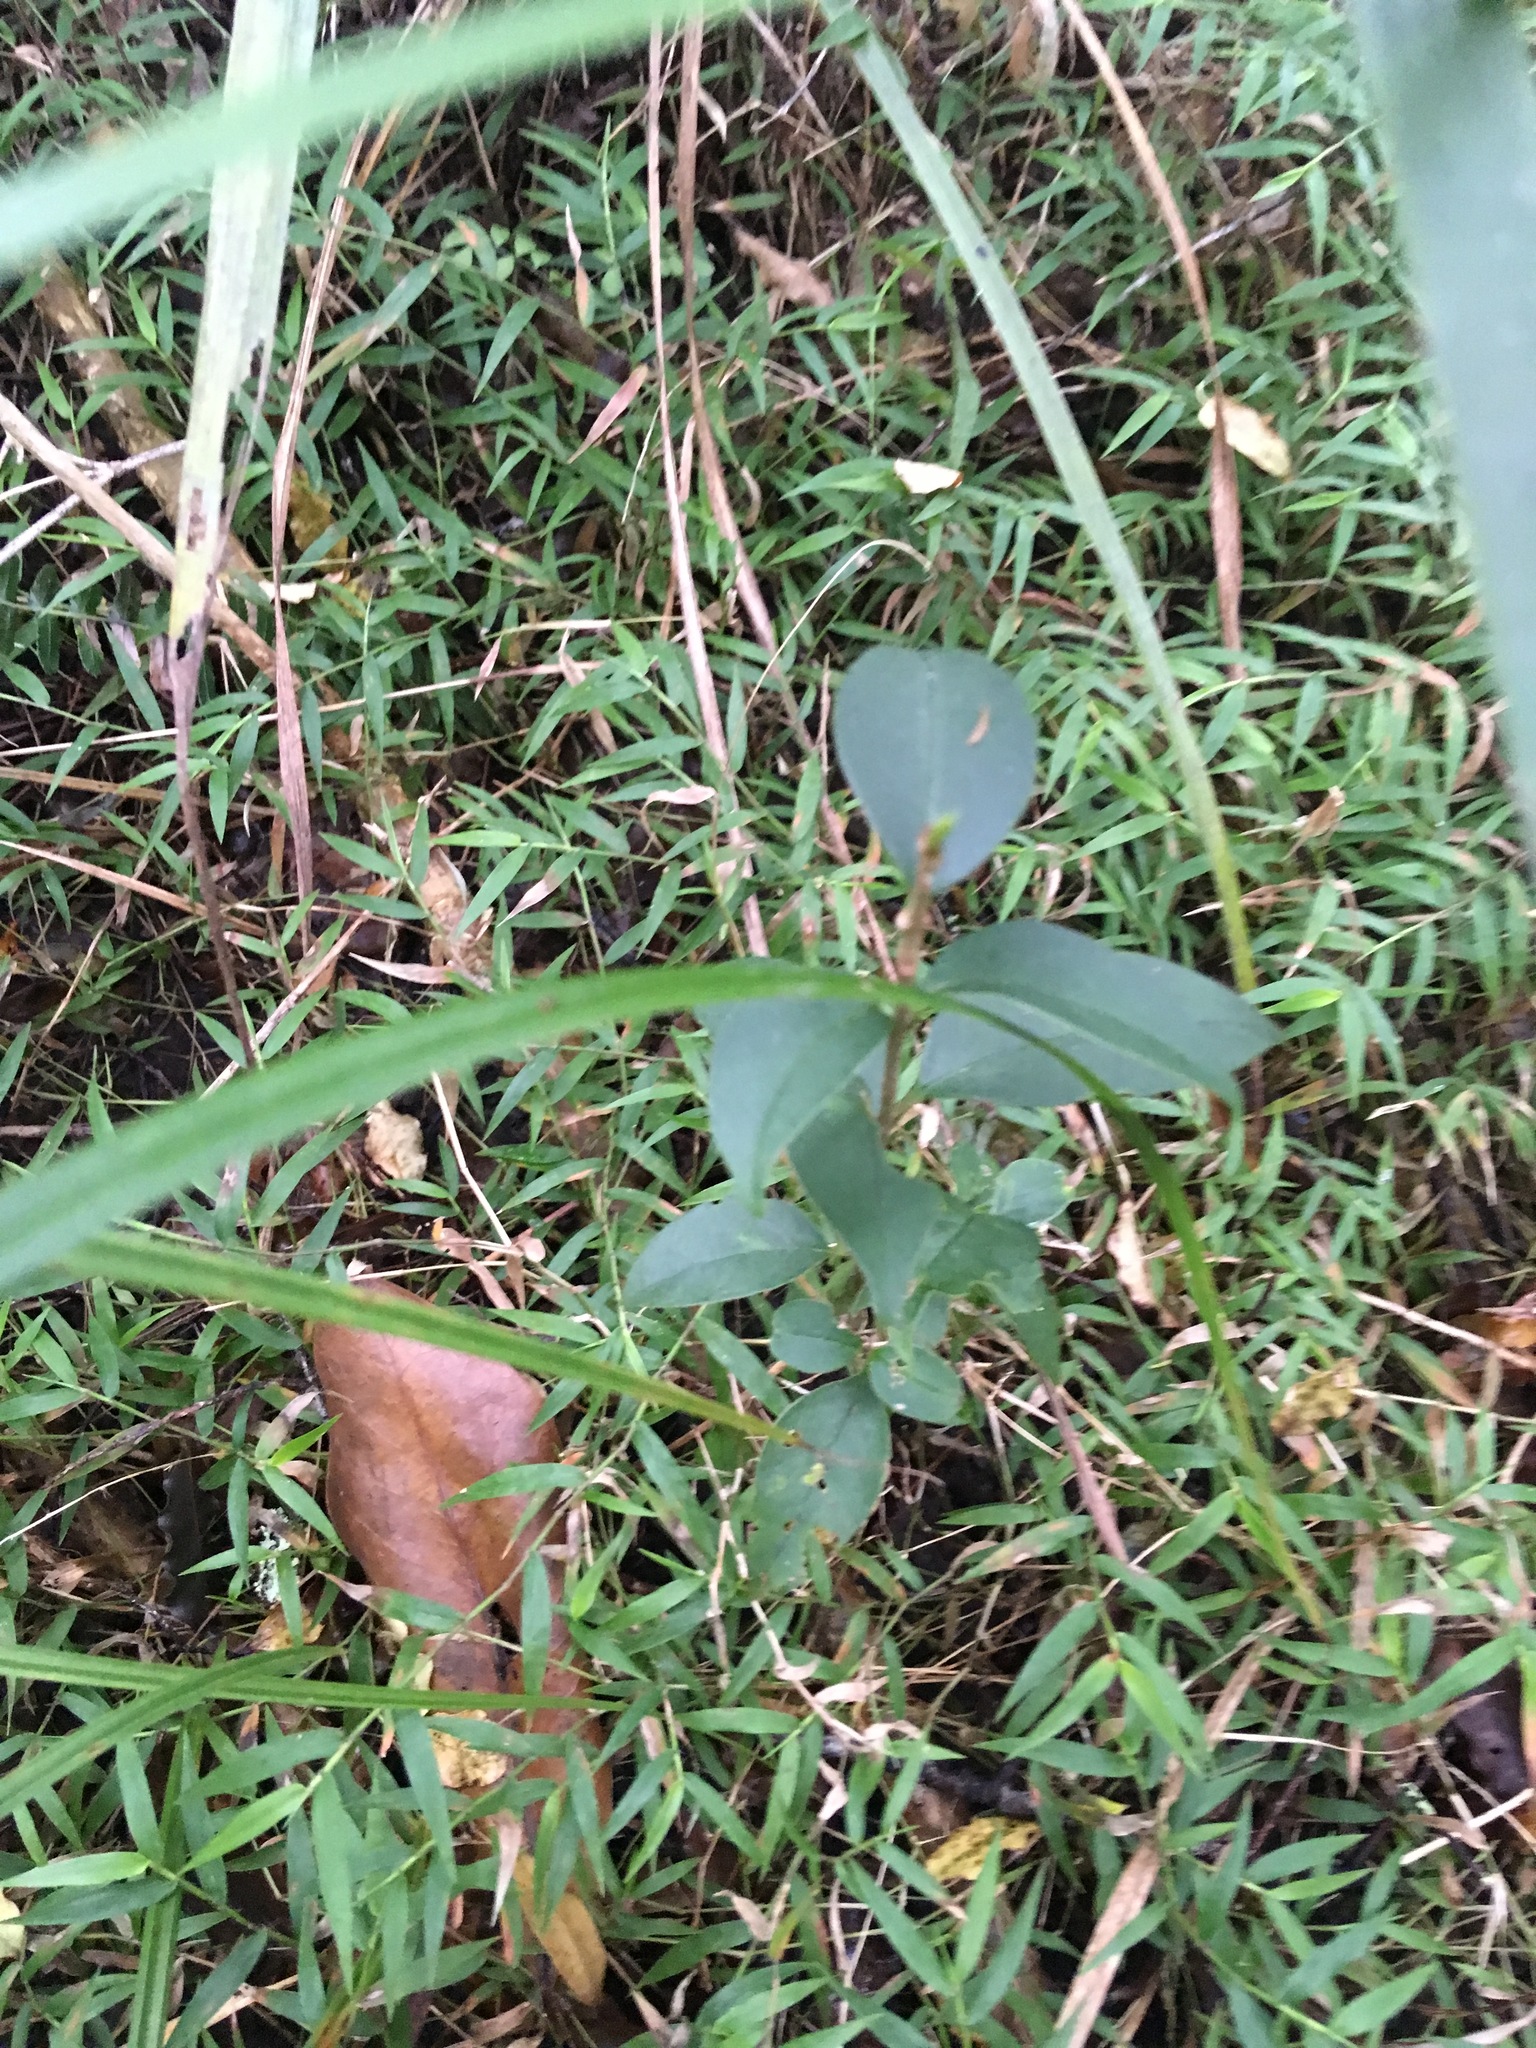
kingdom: Plantae
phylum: Tracheophyta
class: Magnoliopsida
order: Lamiales
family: Oleaceae
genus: Ligustrum
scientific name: Ligustrum lucidum
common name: Glossy privet
